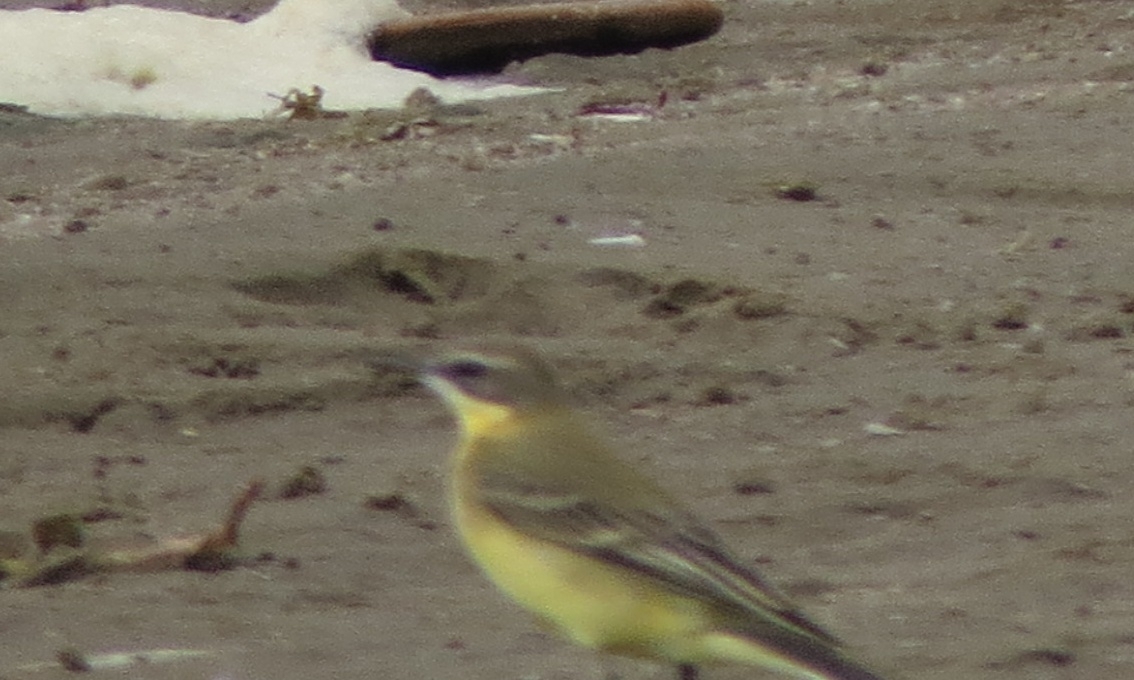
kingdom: Animalia
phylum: Chordata
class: Aves
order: Passeriformes
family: Motacillidae
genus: Motacilla
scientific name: Motacilla flava
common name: Western yellow wagtail
